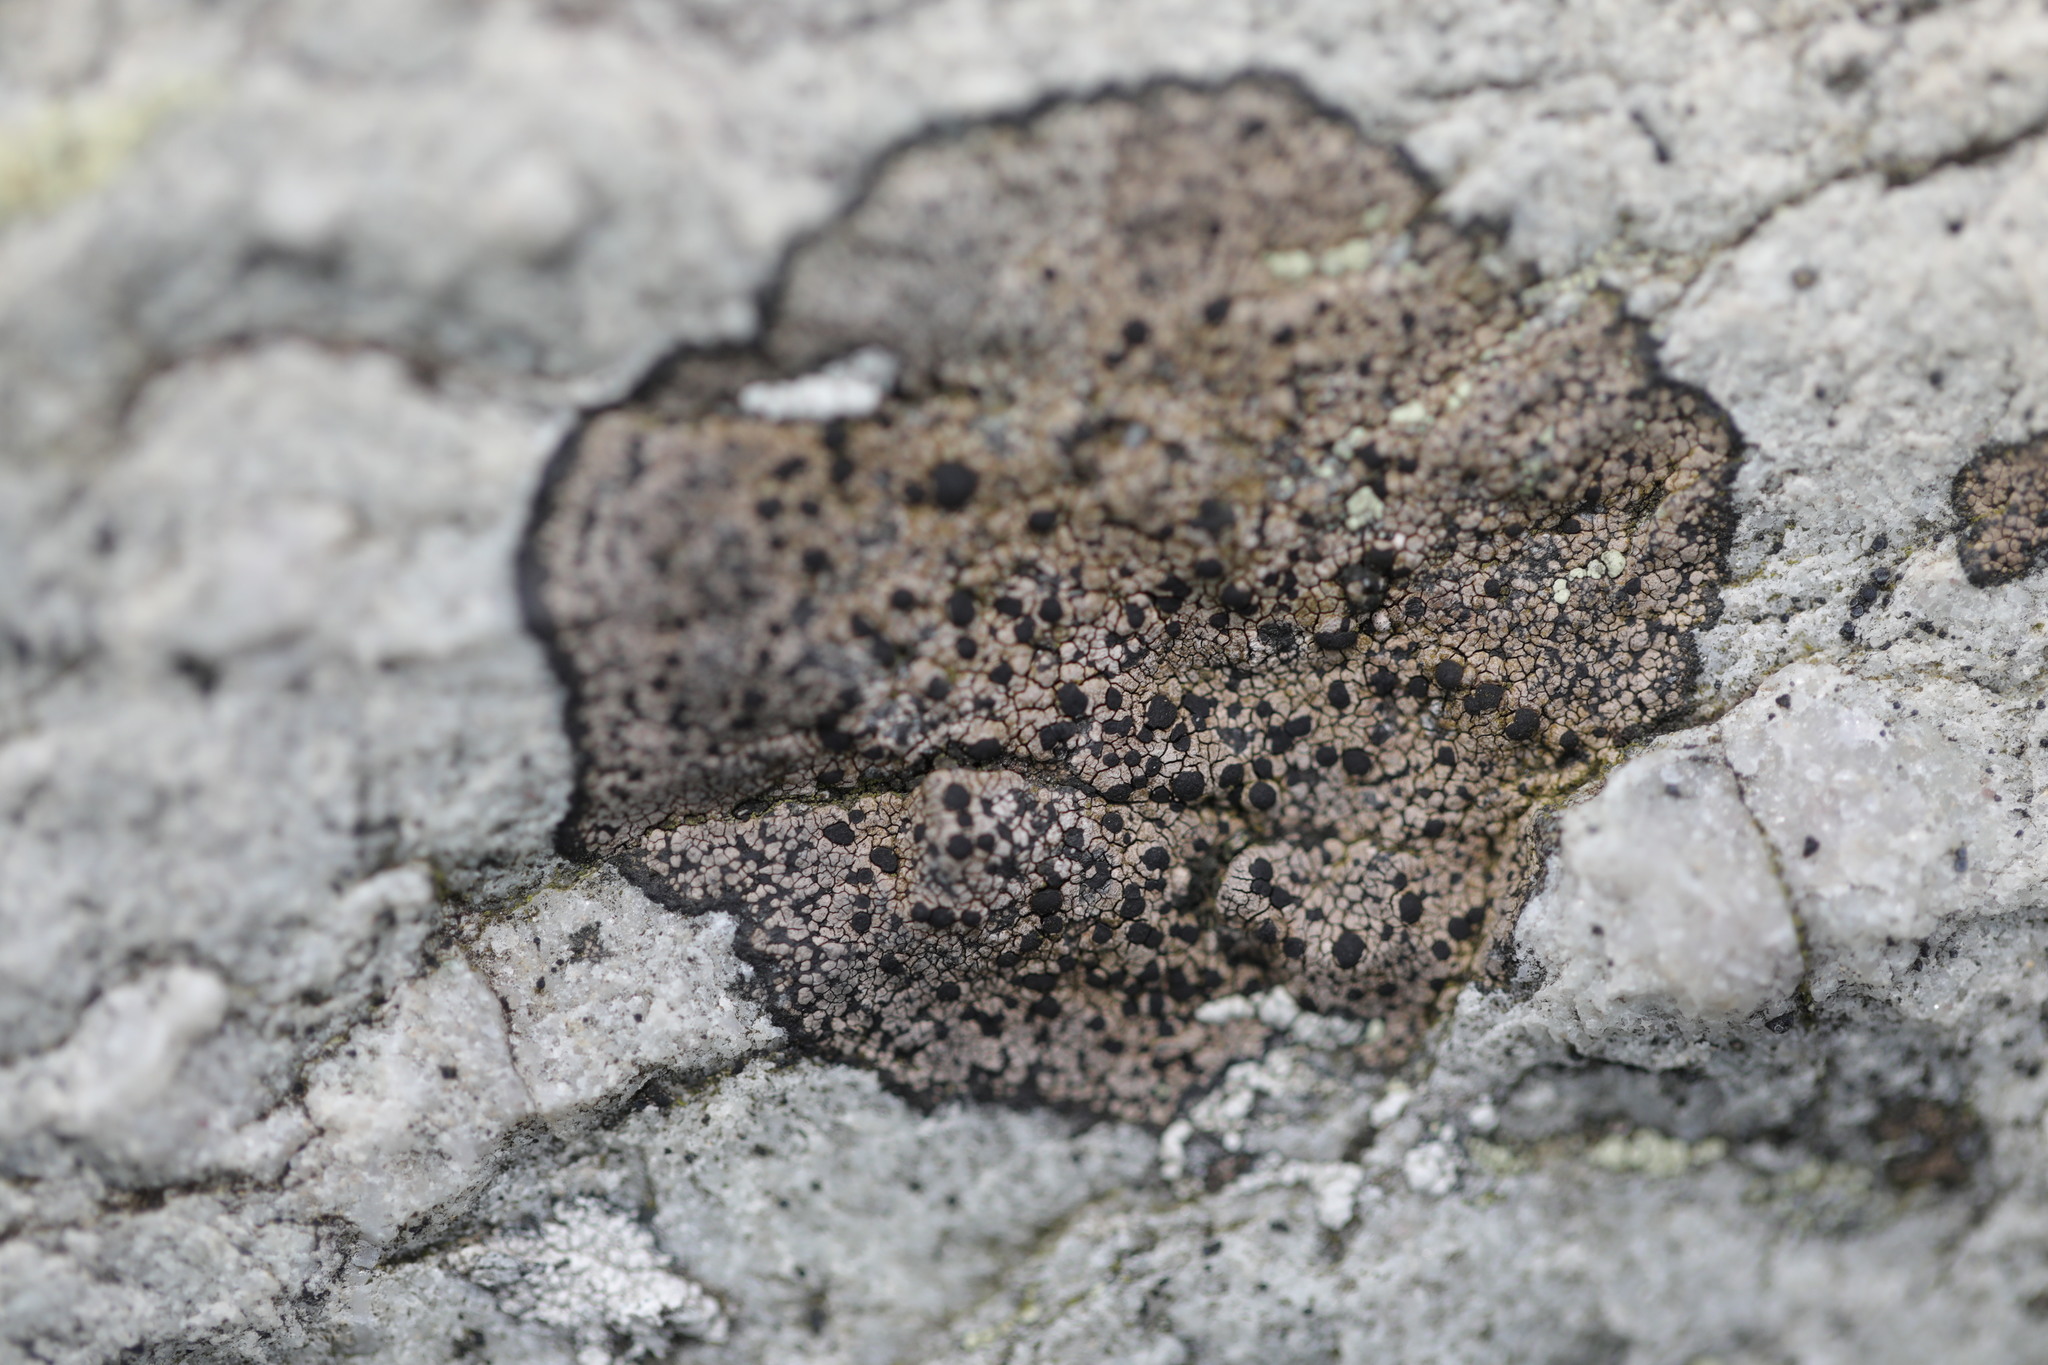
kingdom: Fungi
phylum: Ascomycota
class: Lecanoromycetes
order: Rhizocarpales
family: Rhizocarpaceae
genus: Rhizocarpon
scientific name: Rhizocarpon richardii
